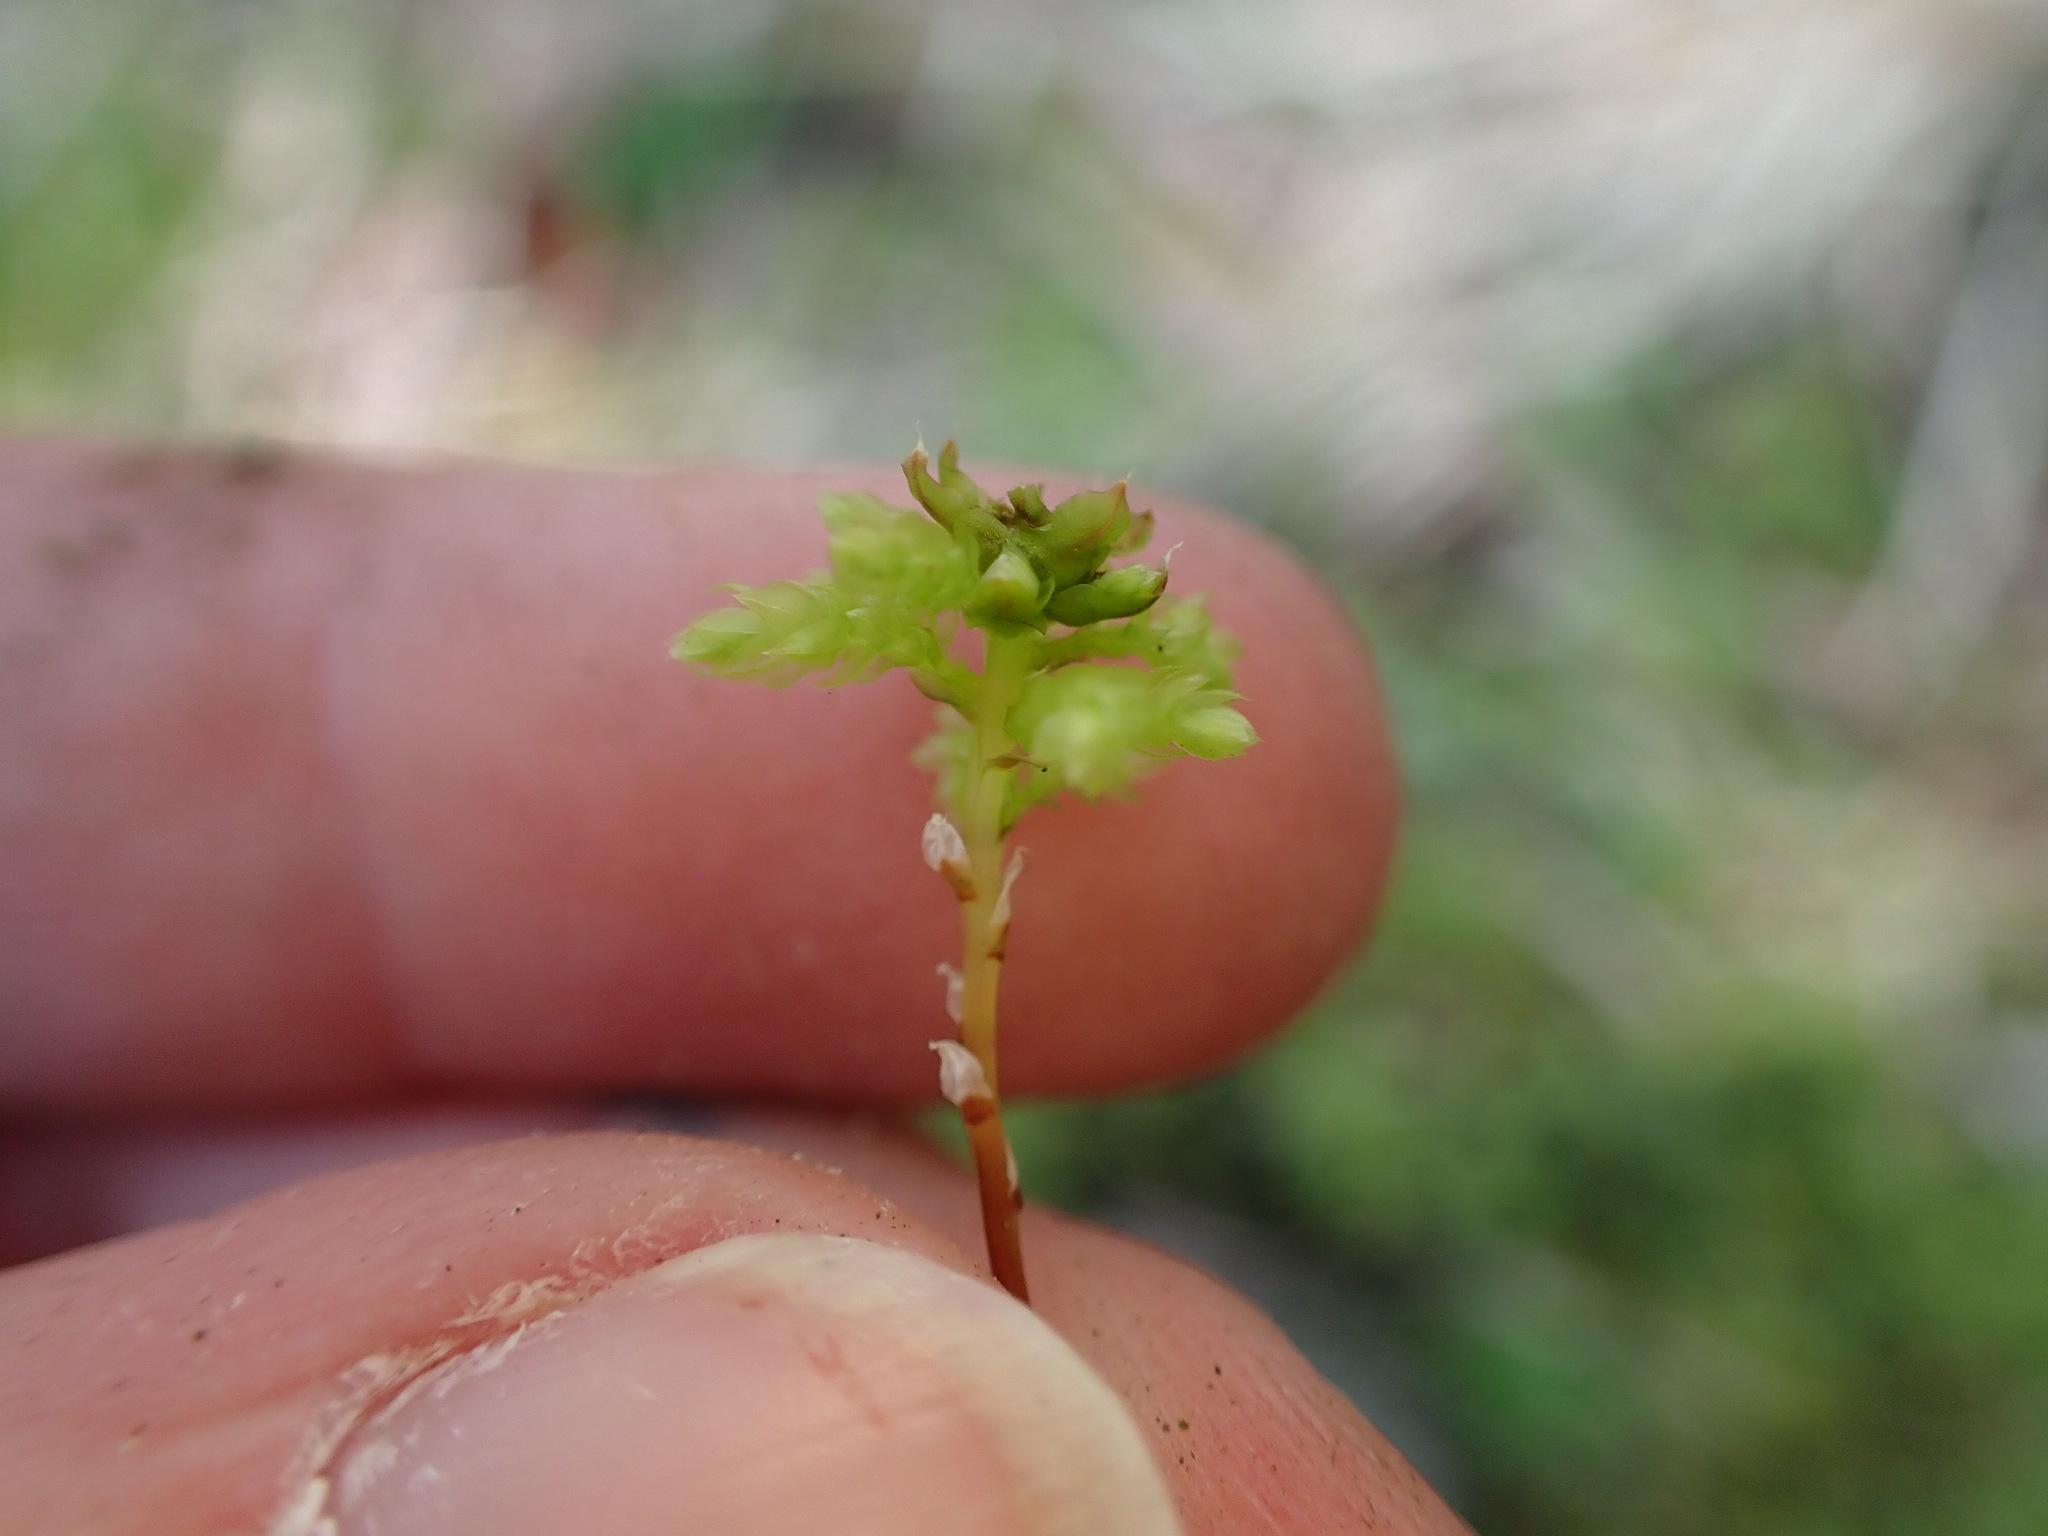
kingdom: Plantae
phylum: Bryophyta
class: Bryopsida
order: Bryales
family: Mniaceae
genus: Leucolepis
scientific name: Leucolepis acanthoneura
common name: Leucolepis umbrella moss
